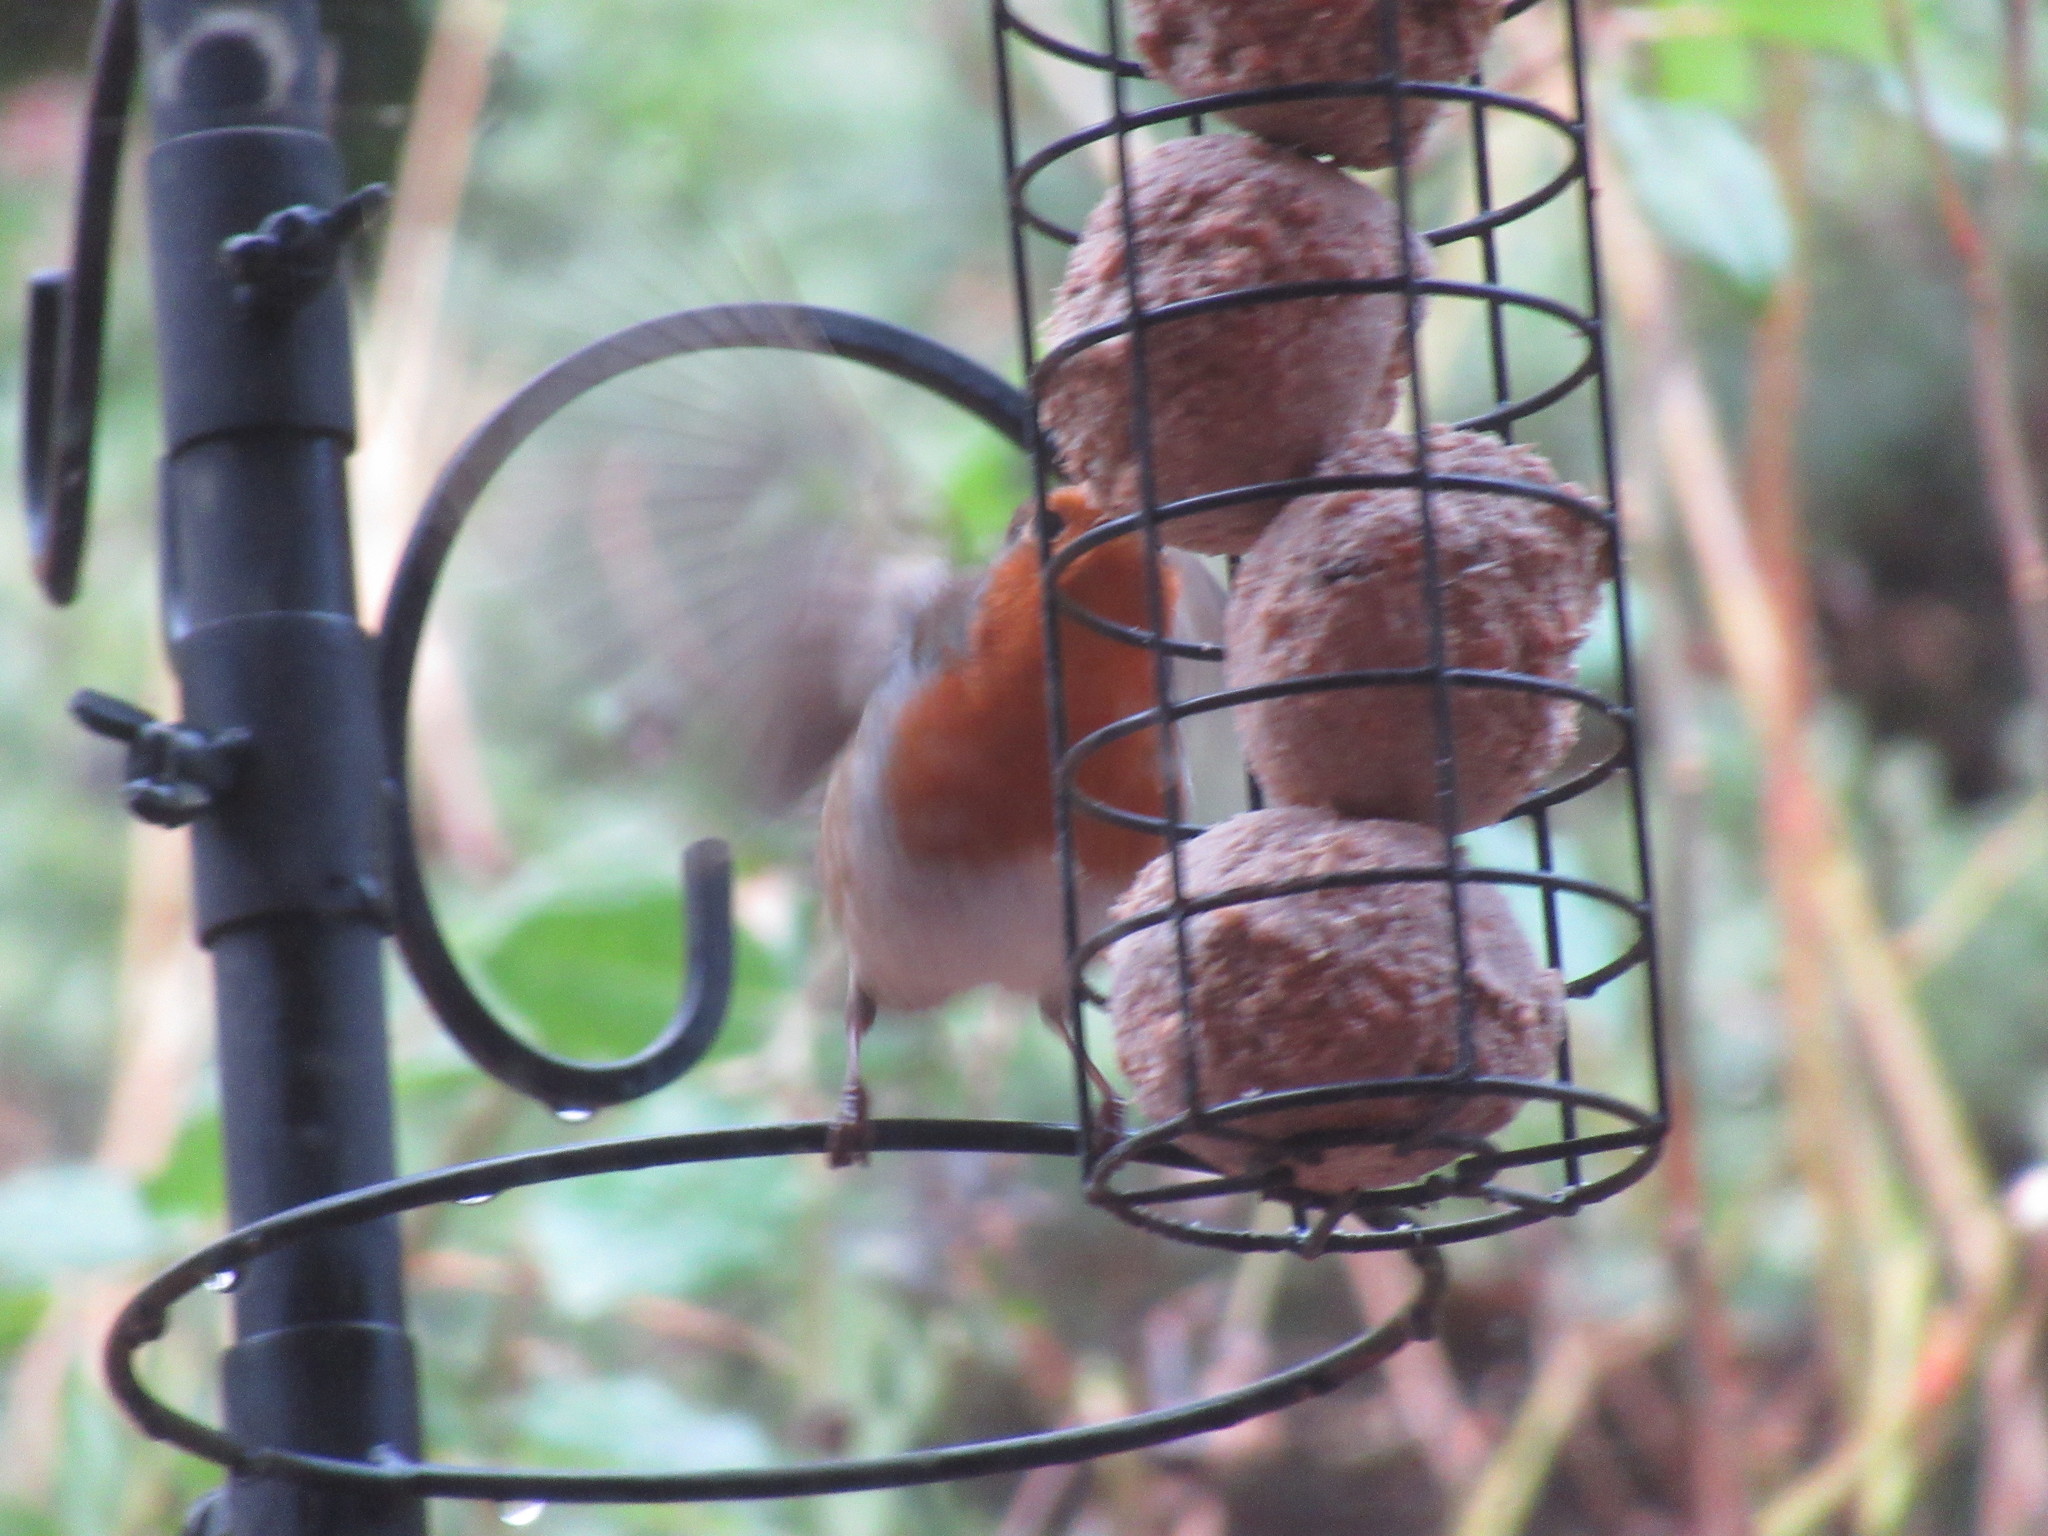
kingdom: Animalia
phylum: Chordata
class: Aves
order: Passeriformes
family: Muscicapidae
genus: Erithacus
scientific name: Erithacus rubecula
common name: European robin
